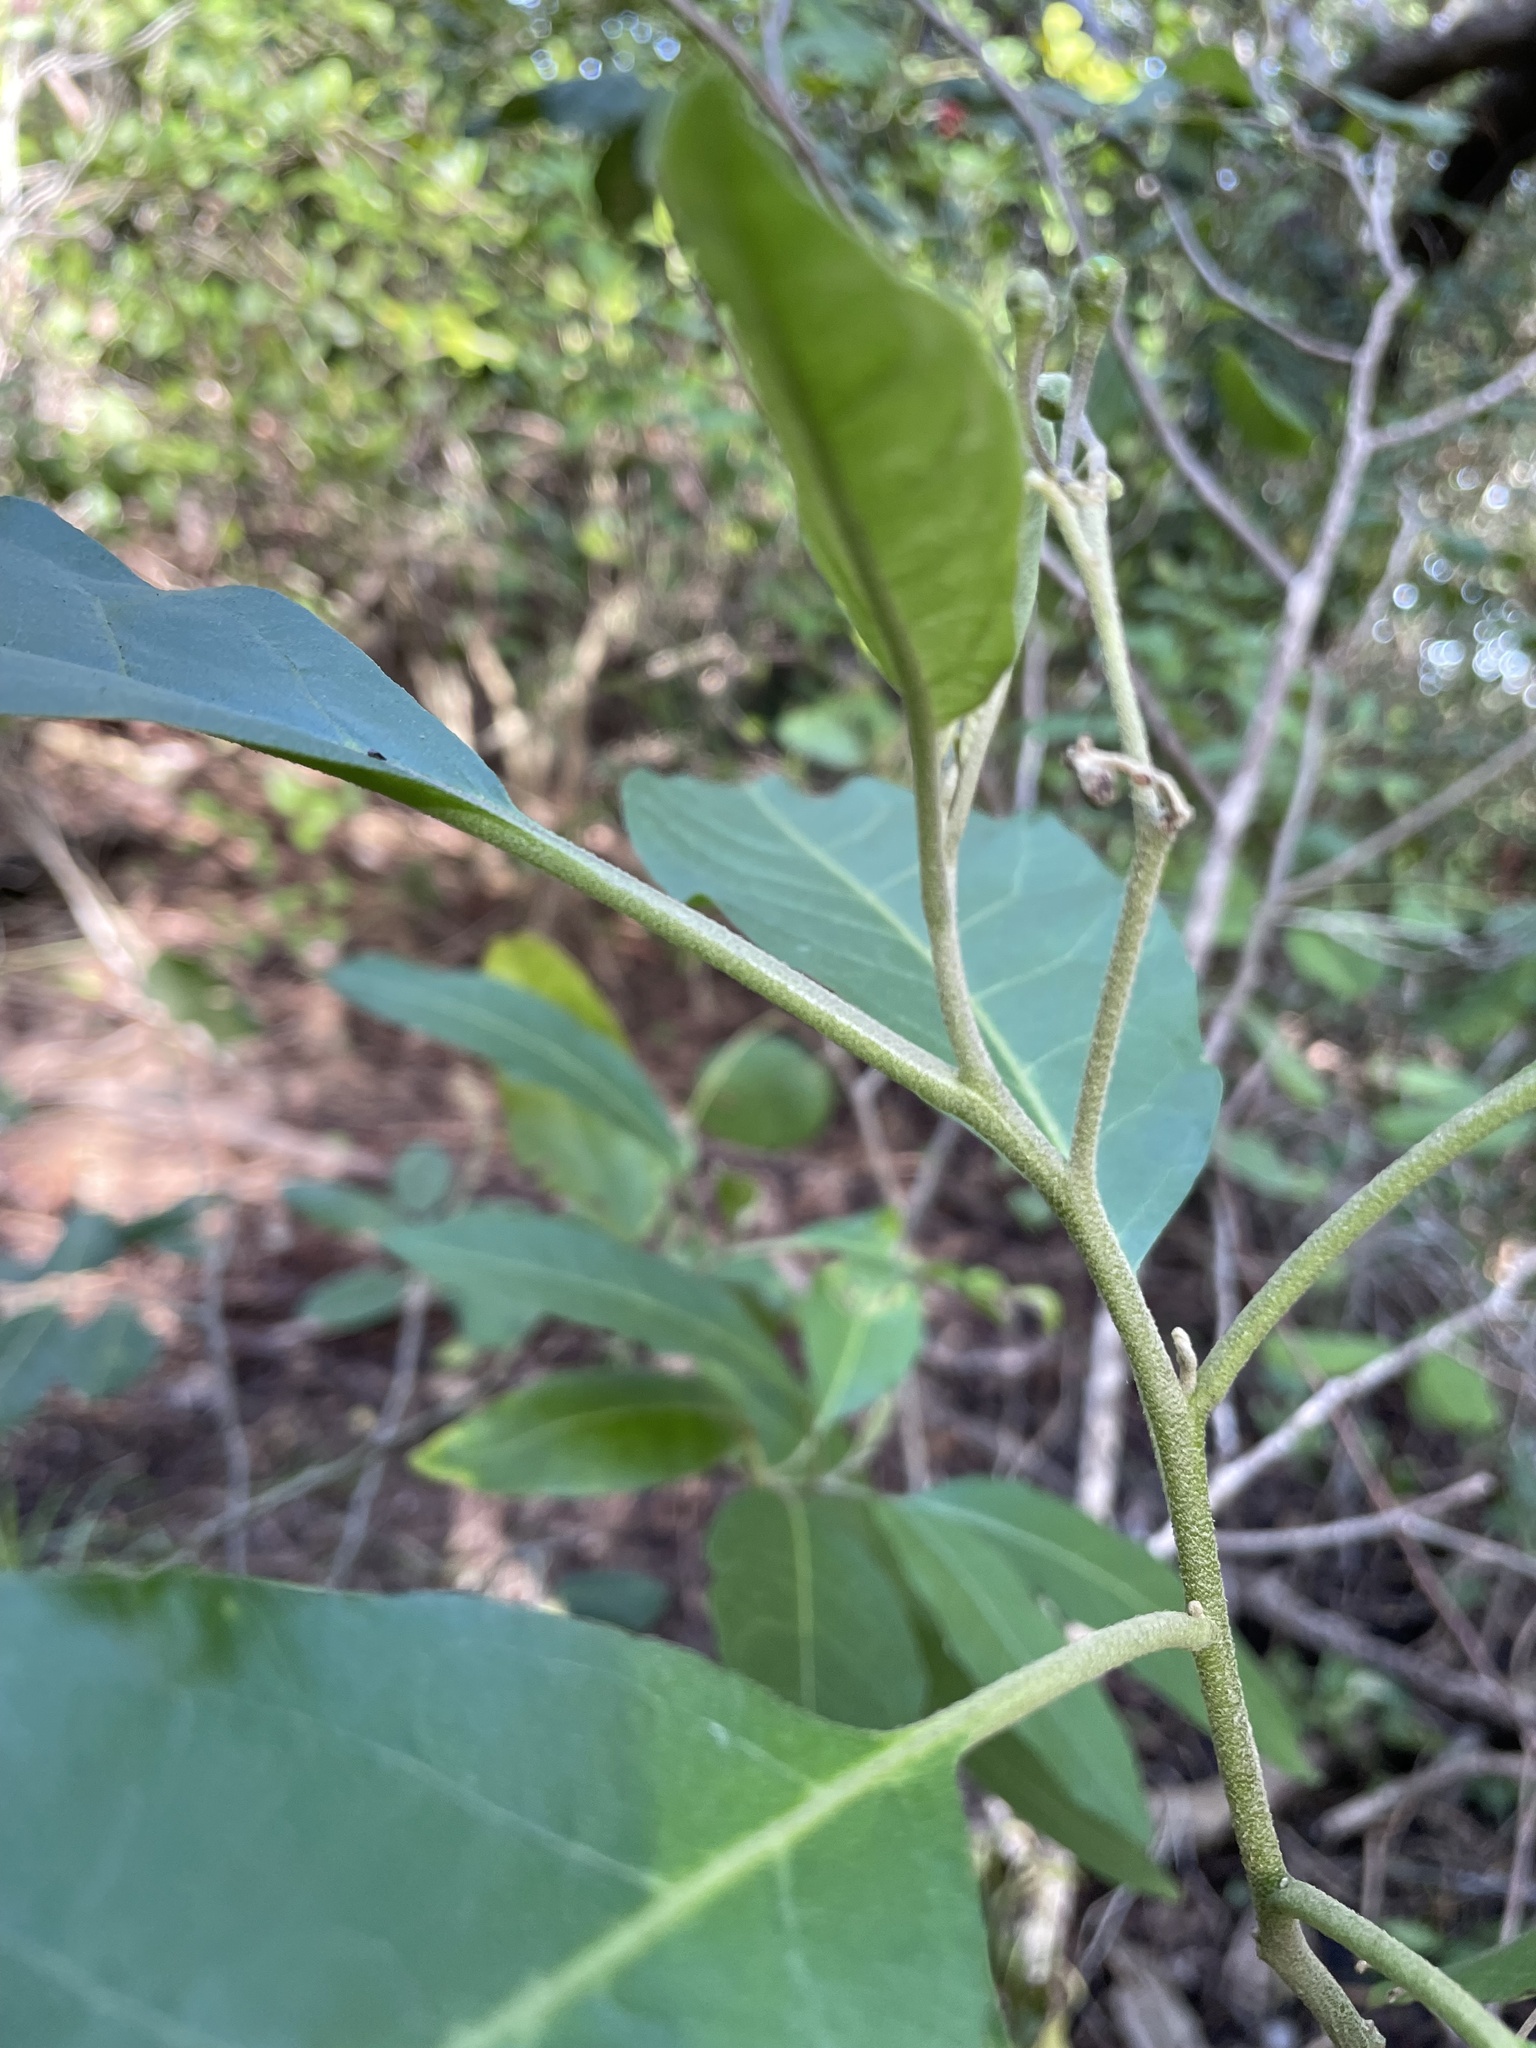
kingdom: Plantae
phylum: Tracheophyta
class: Magnoliopsida
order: Solanales
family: Solanaceae
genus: Solanum
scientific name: Solanum donianum
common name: Mullein nightshade
